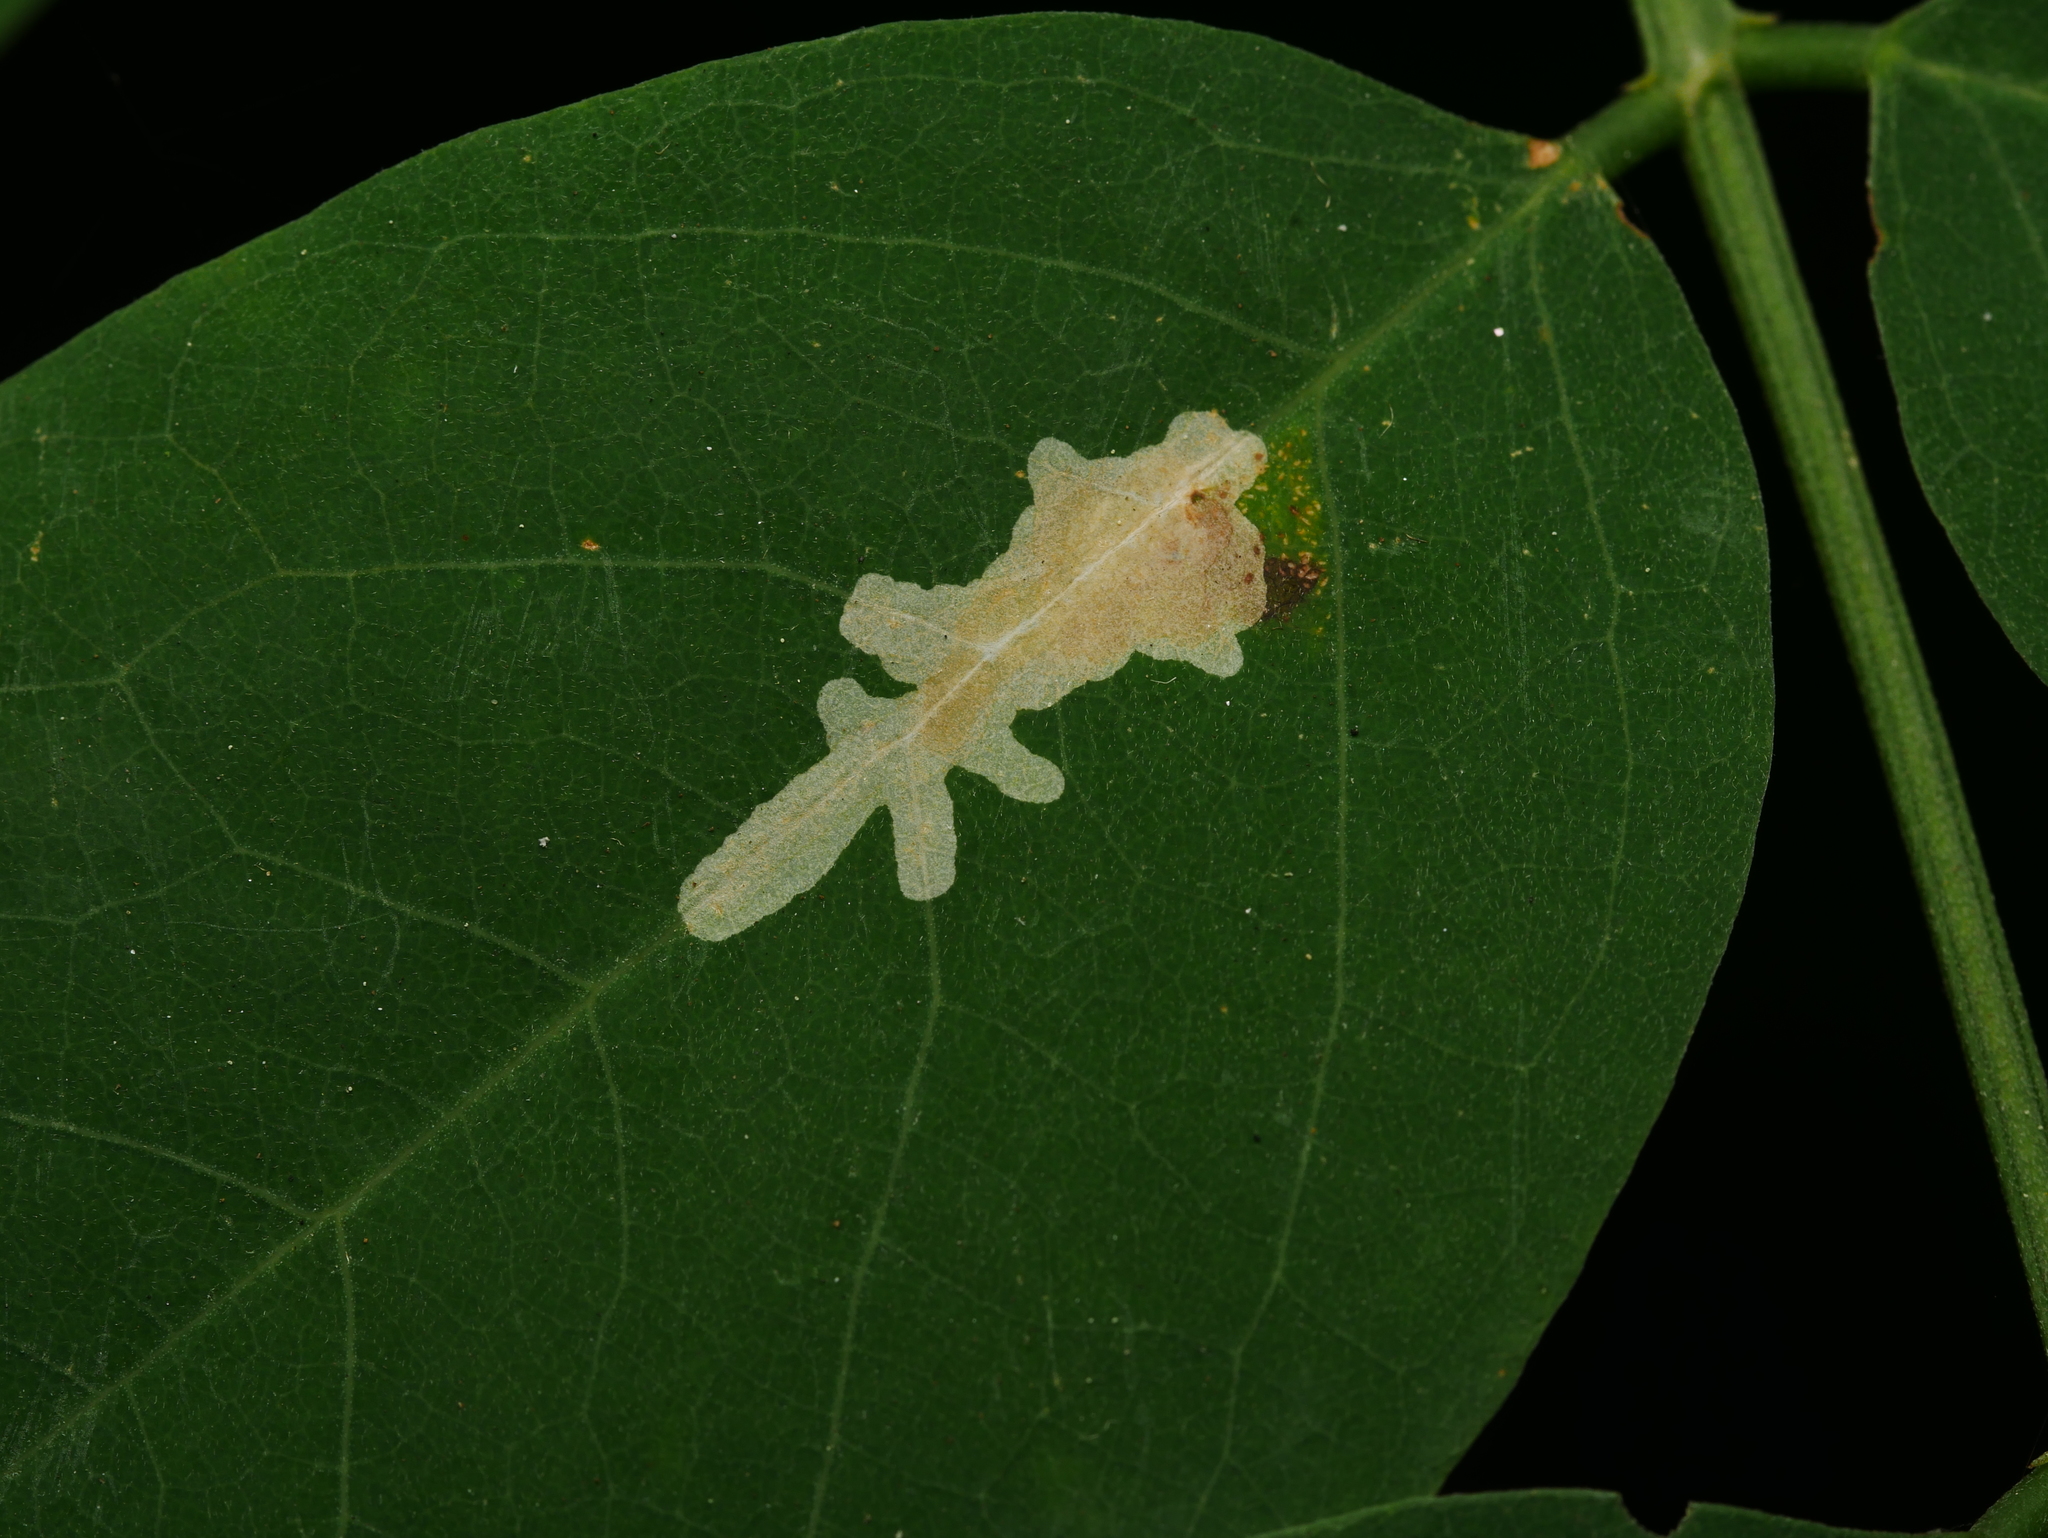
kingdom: Animalia
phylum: Arthropoda
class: Insecta
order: Lepidoptera
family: Gracillariidae
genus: Parectopa
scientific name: Parectopa robiniella
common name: Locust digitate leafminer
